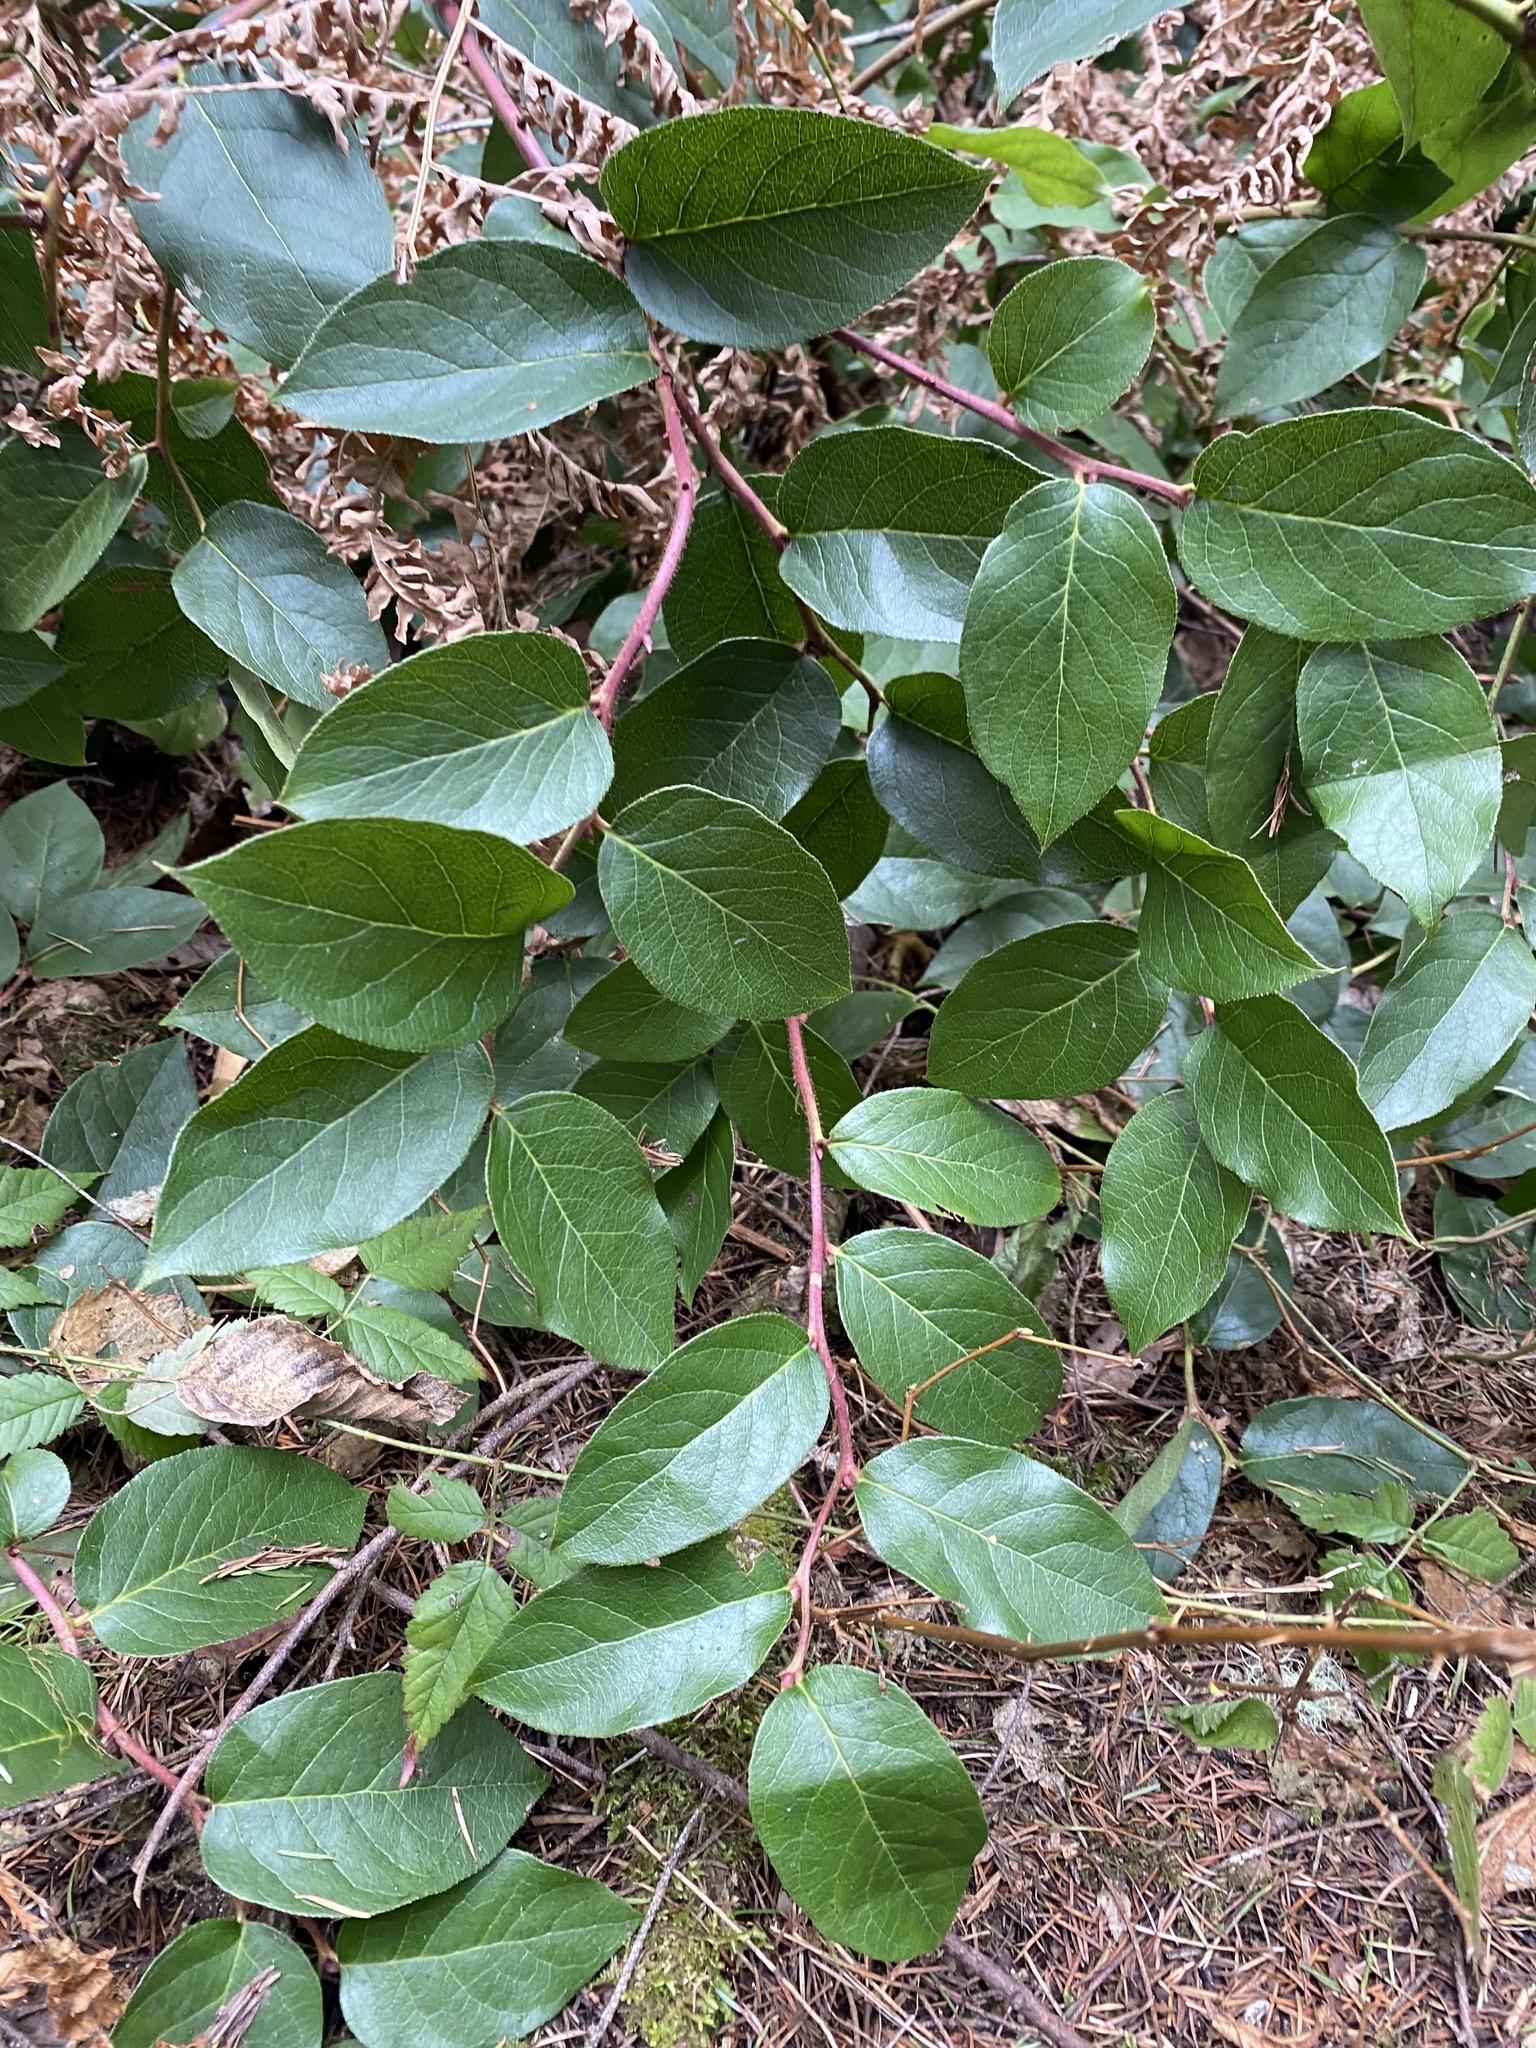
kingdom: Plantae
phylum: Tracheophyta
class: Magnoliopsida
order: Ericales
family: Ericaceae
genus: Gaultheria
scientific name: Gaultheria shallon
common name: Shallon
